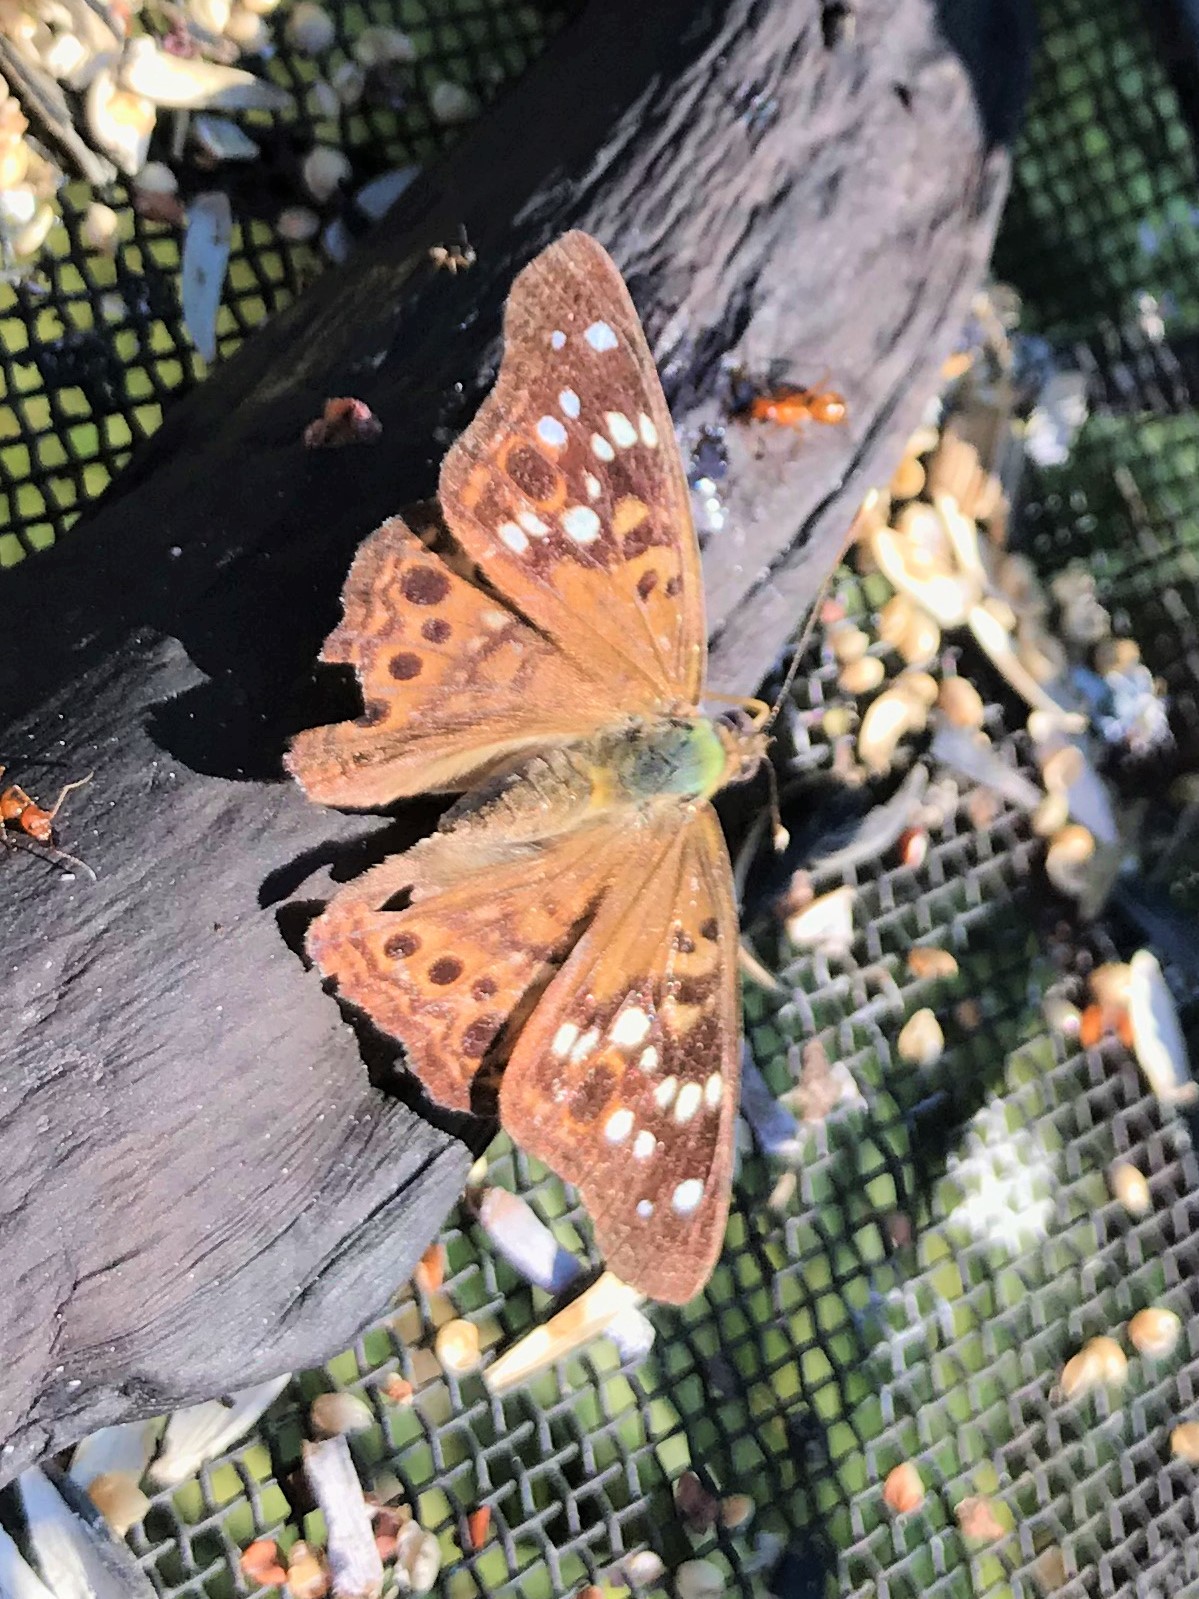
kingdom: Animalia
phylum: Arthropoda
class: Insecta
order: Lepidoptera
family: Nymphalidae
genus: Asterocampa
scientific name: Asterocampa celtis
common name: Hackberry emperor
